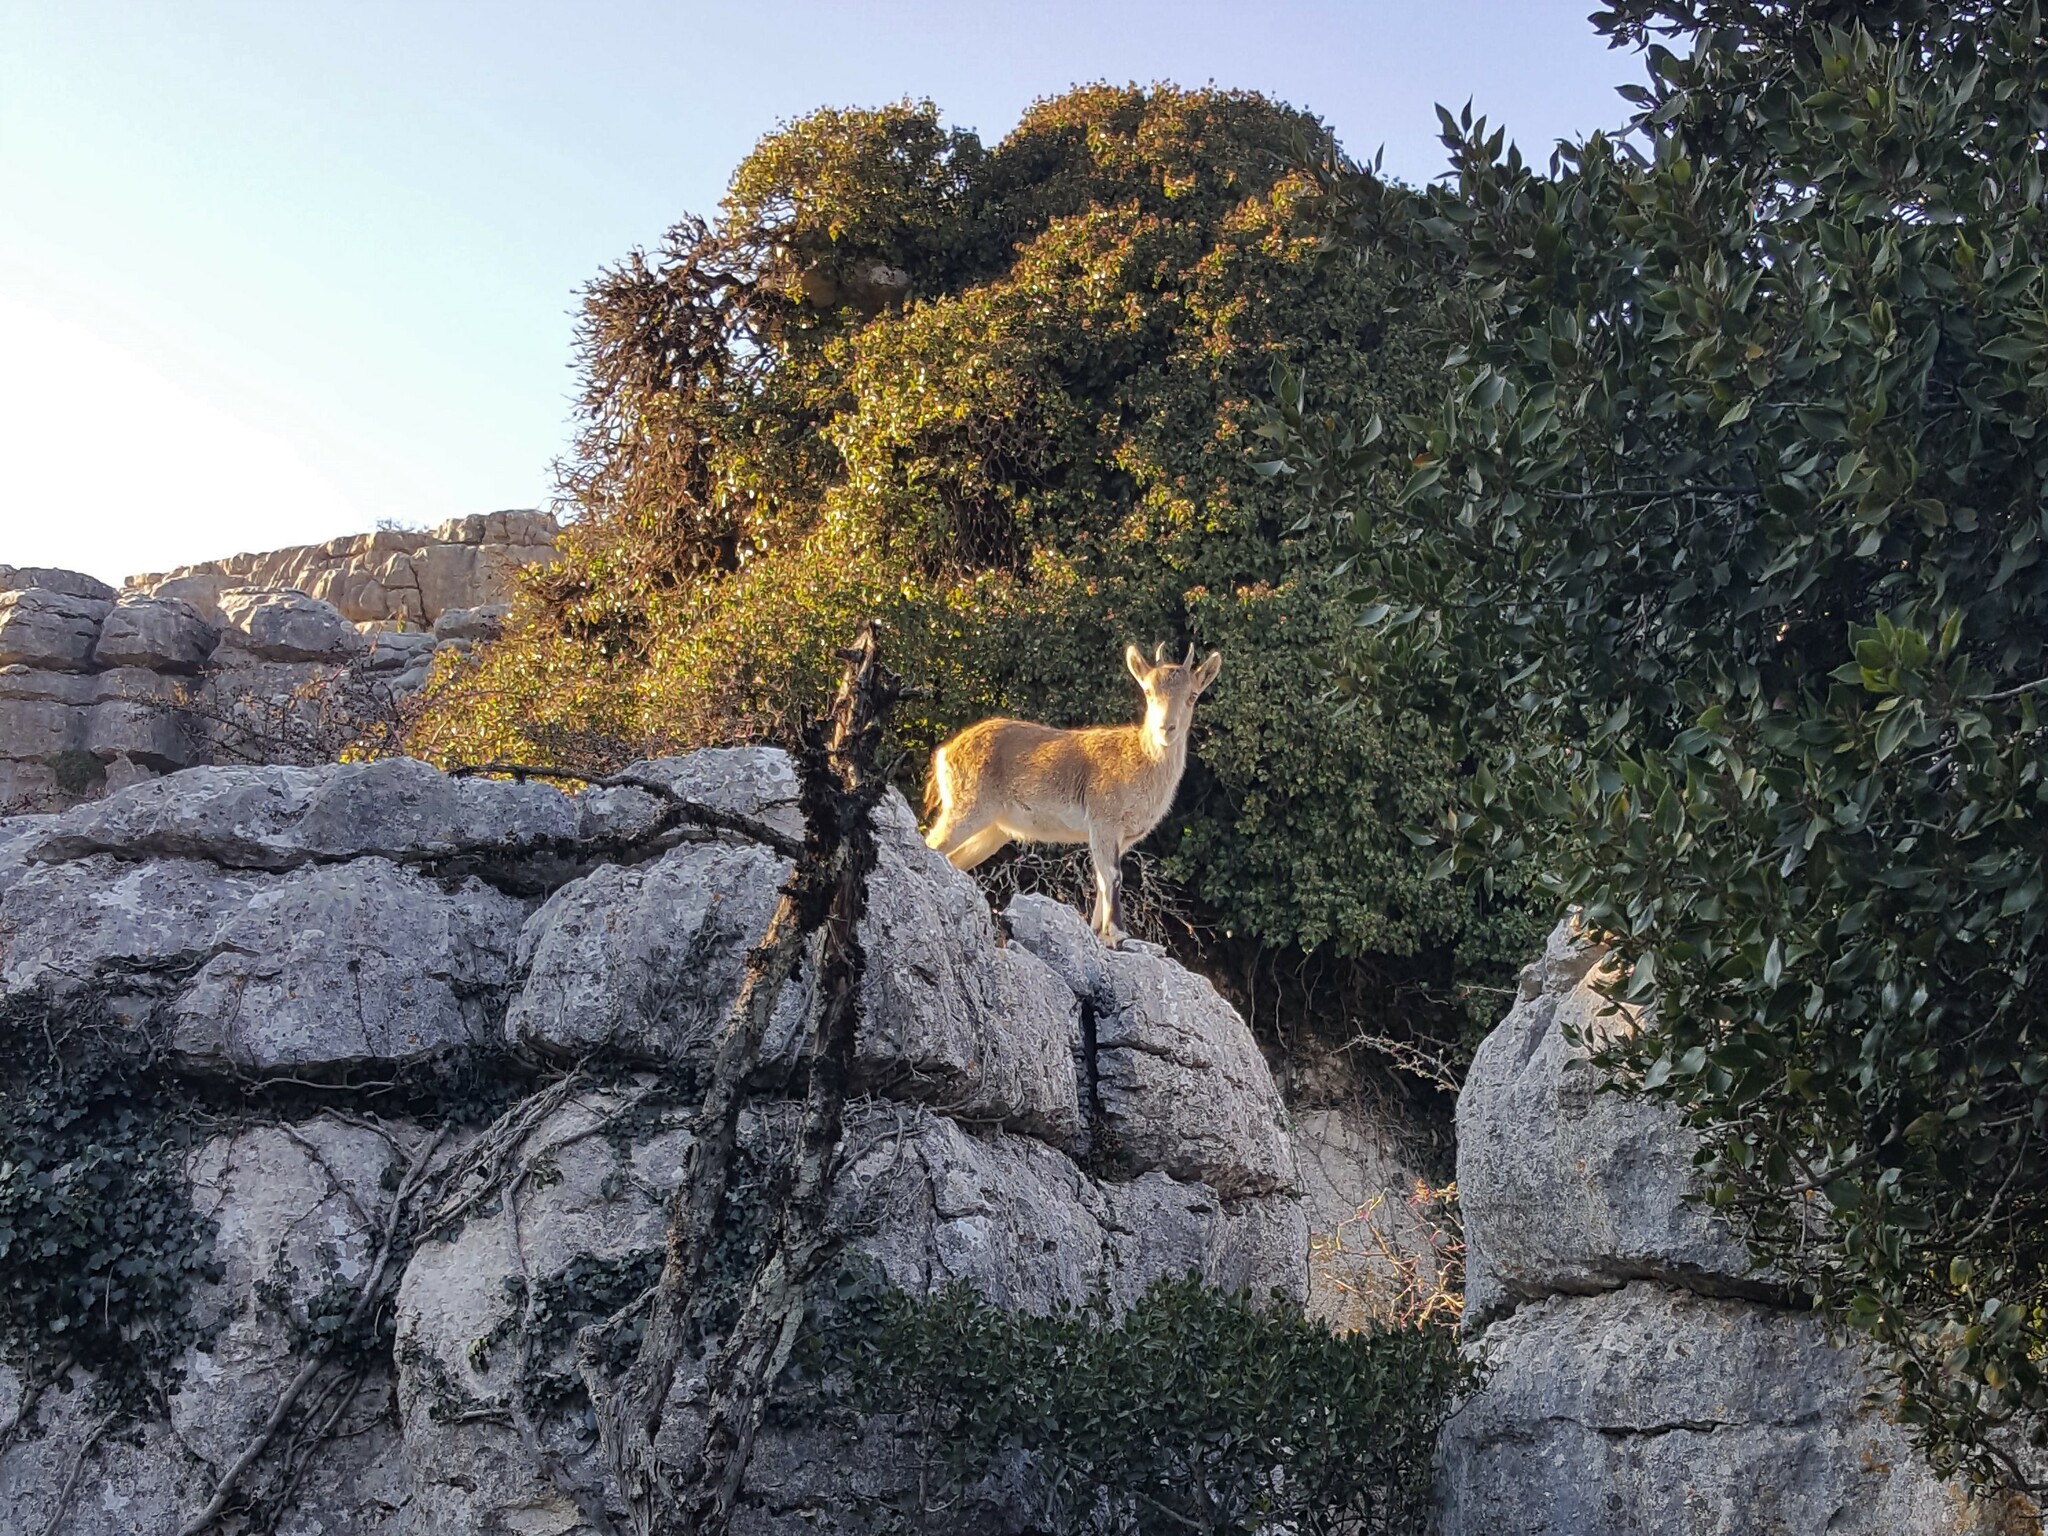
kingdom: Animalia
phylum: Chordata
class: Mammalia
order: Artiodactyla
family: Bovidae
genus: Capra
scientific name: Capra pyrenaica
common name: Spanish ibex
